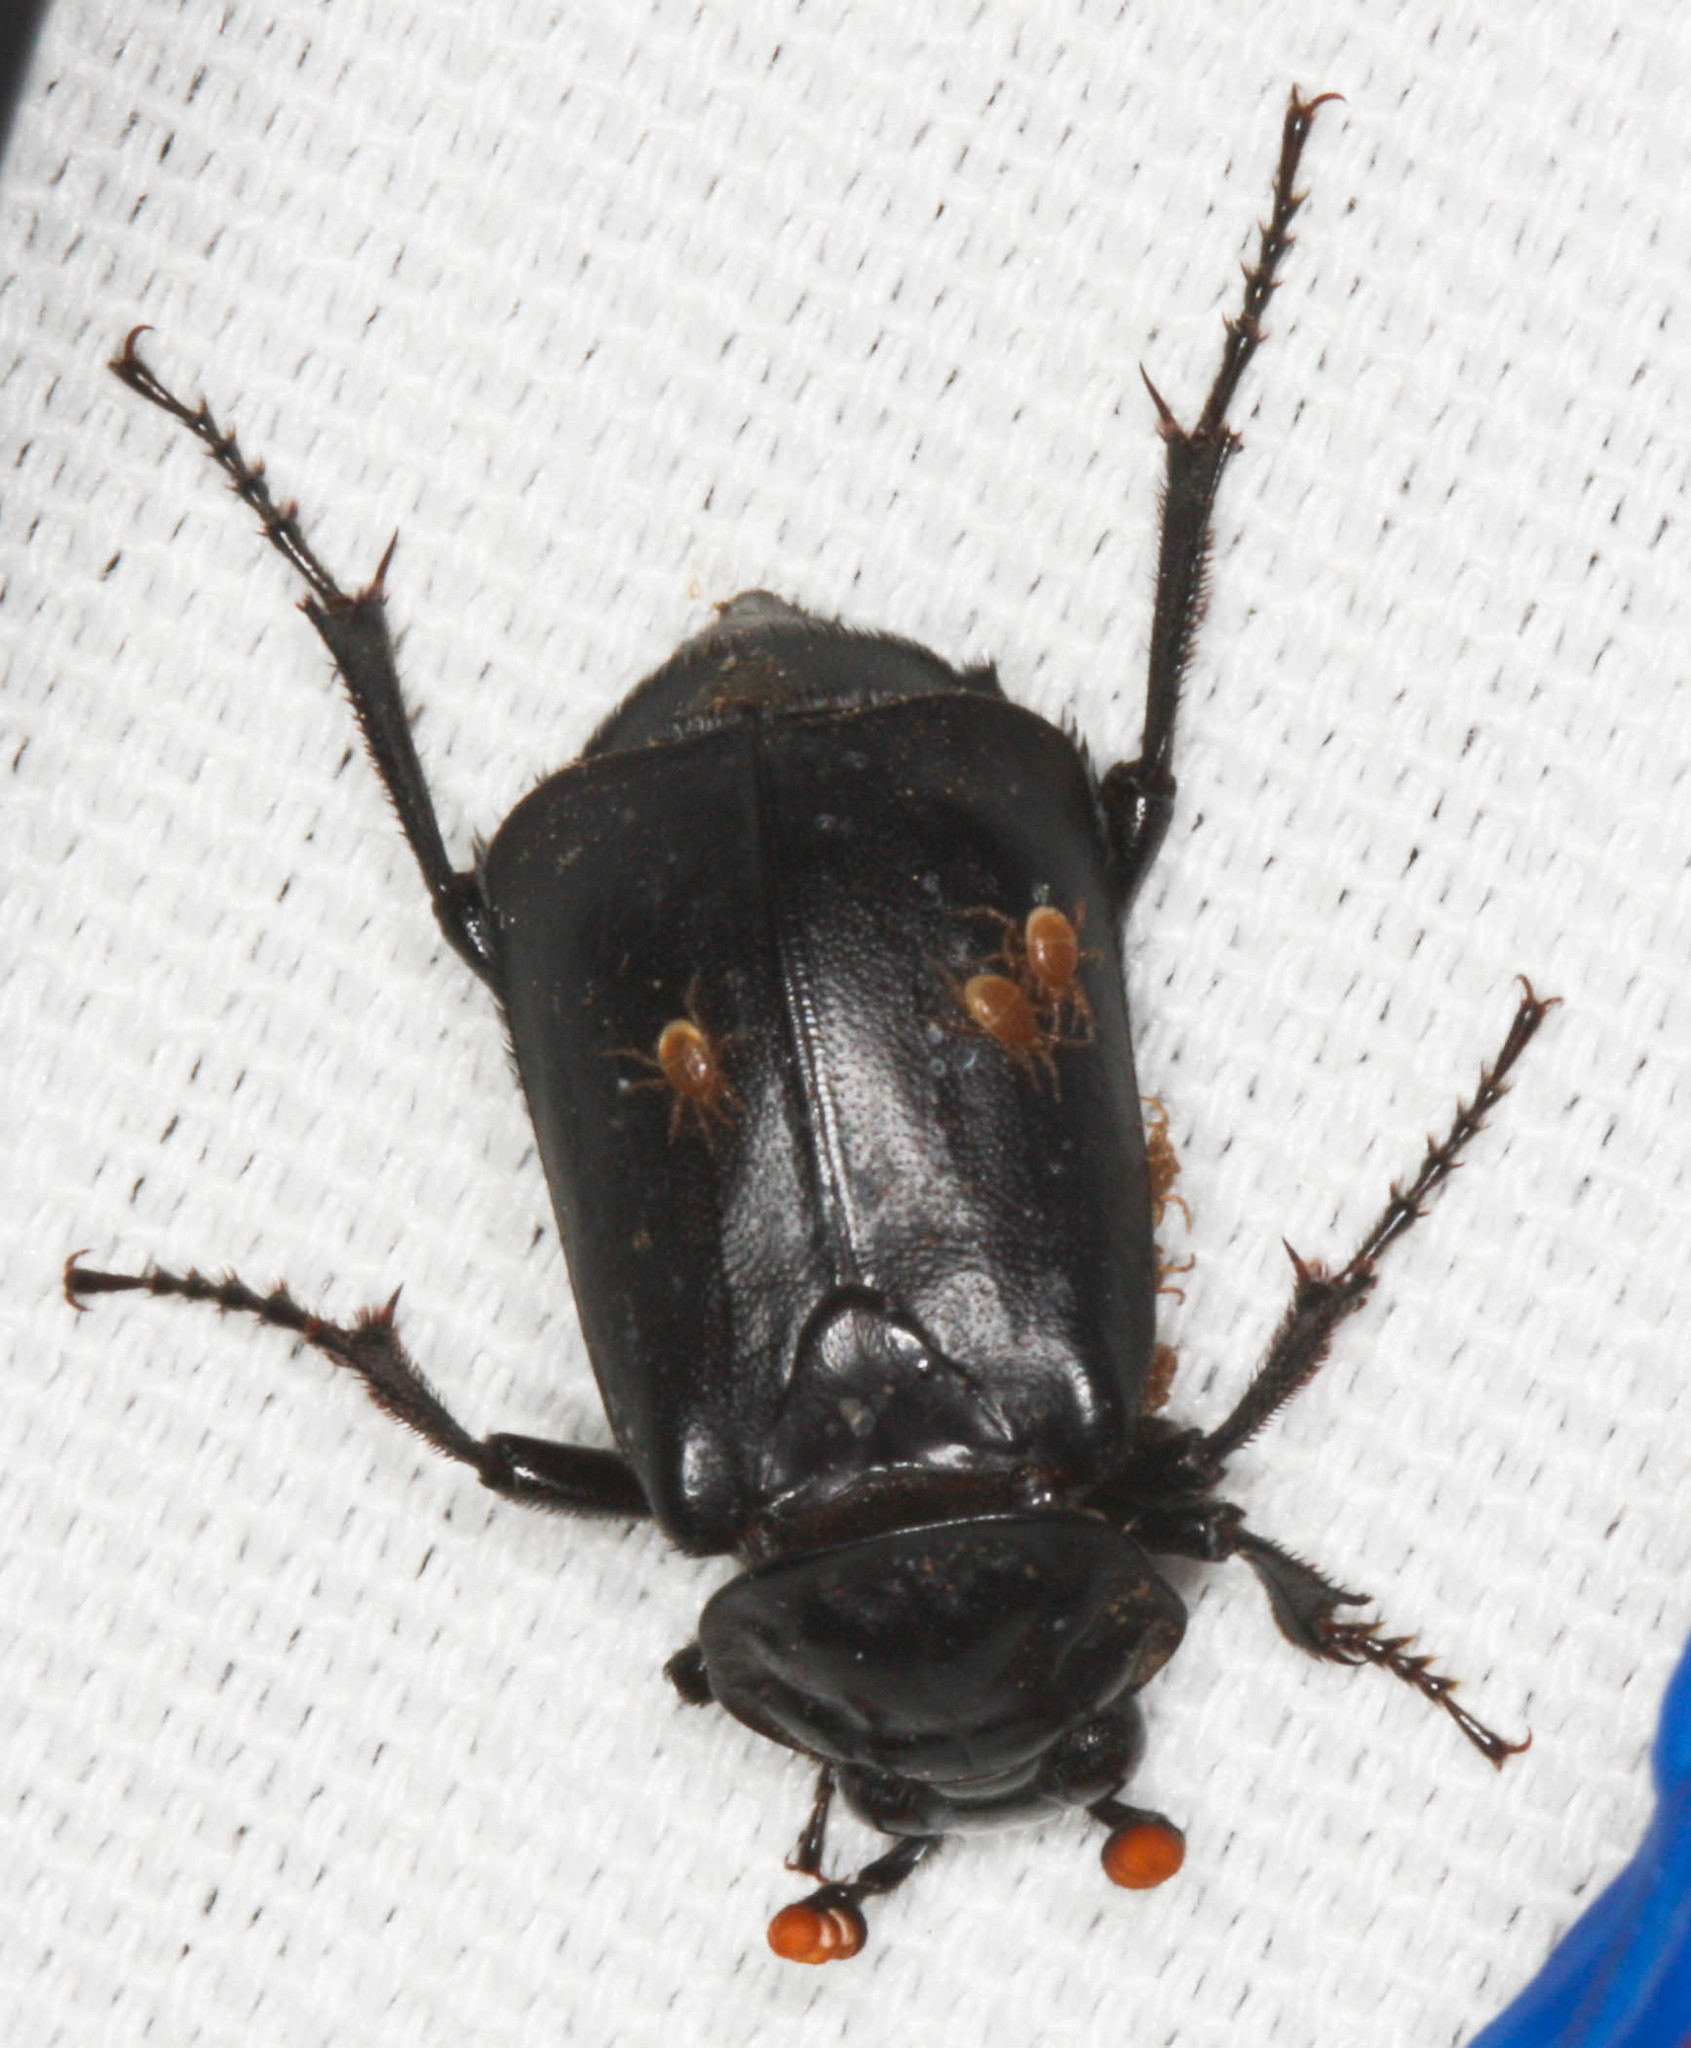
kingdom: Animalia
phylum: Arthropoda
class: Insecta
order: Coleoptera
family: Staphylinidae
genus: Nicrophorus
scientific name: Nicrophorus nigrita
